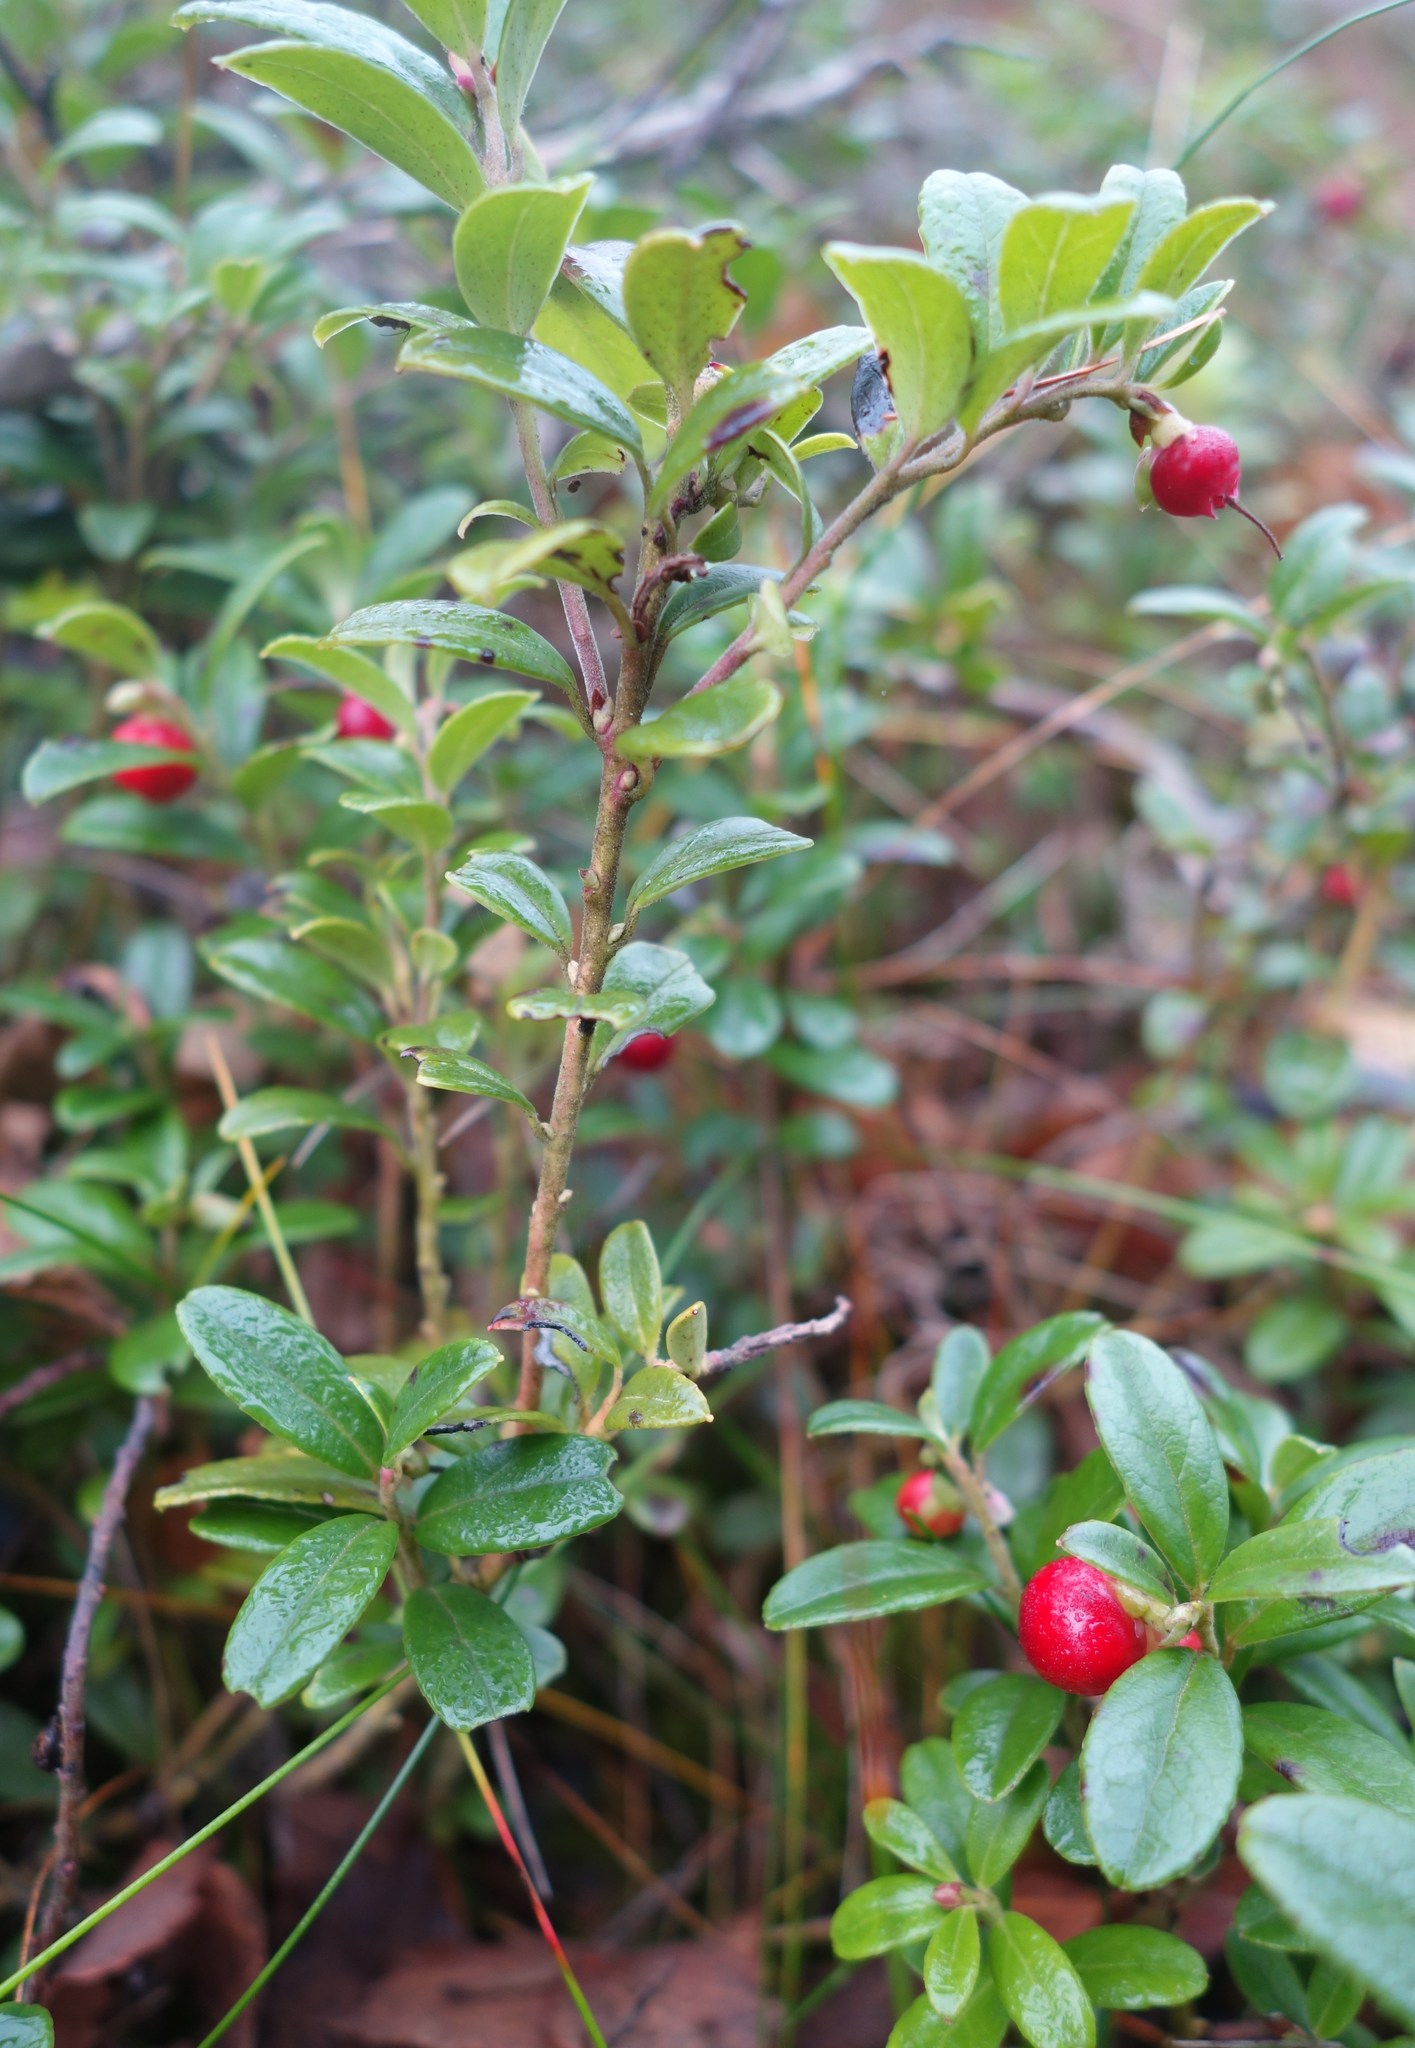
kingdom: Plantae
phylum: Tracheophyta
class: Magnoliopsida
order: Ericales
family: Ericaceae
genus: Vaccinium
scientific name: Vaccinium vitis-idaea
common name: Cowberry
